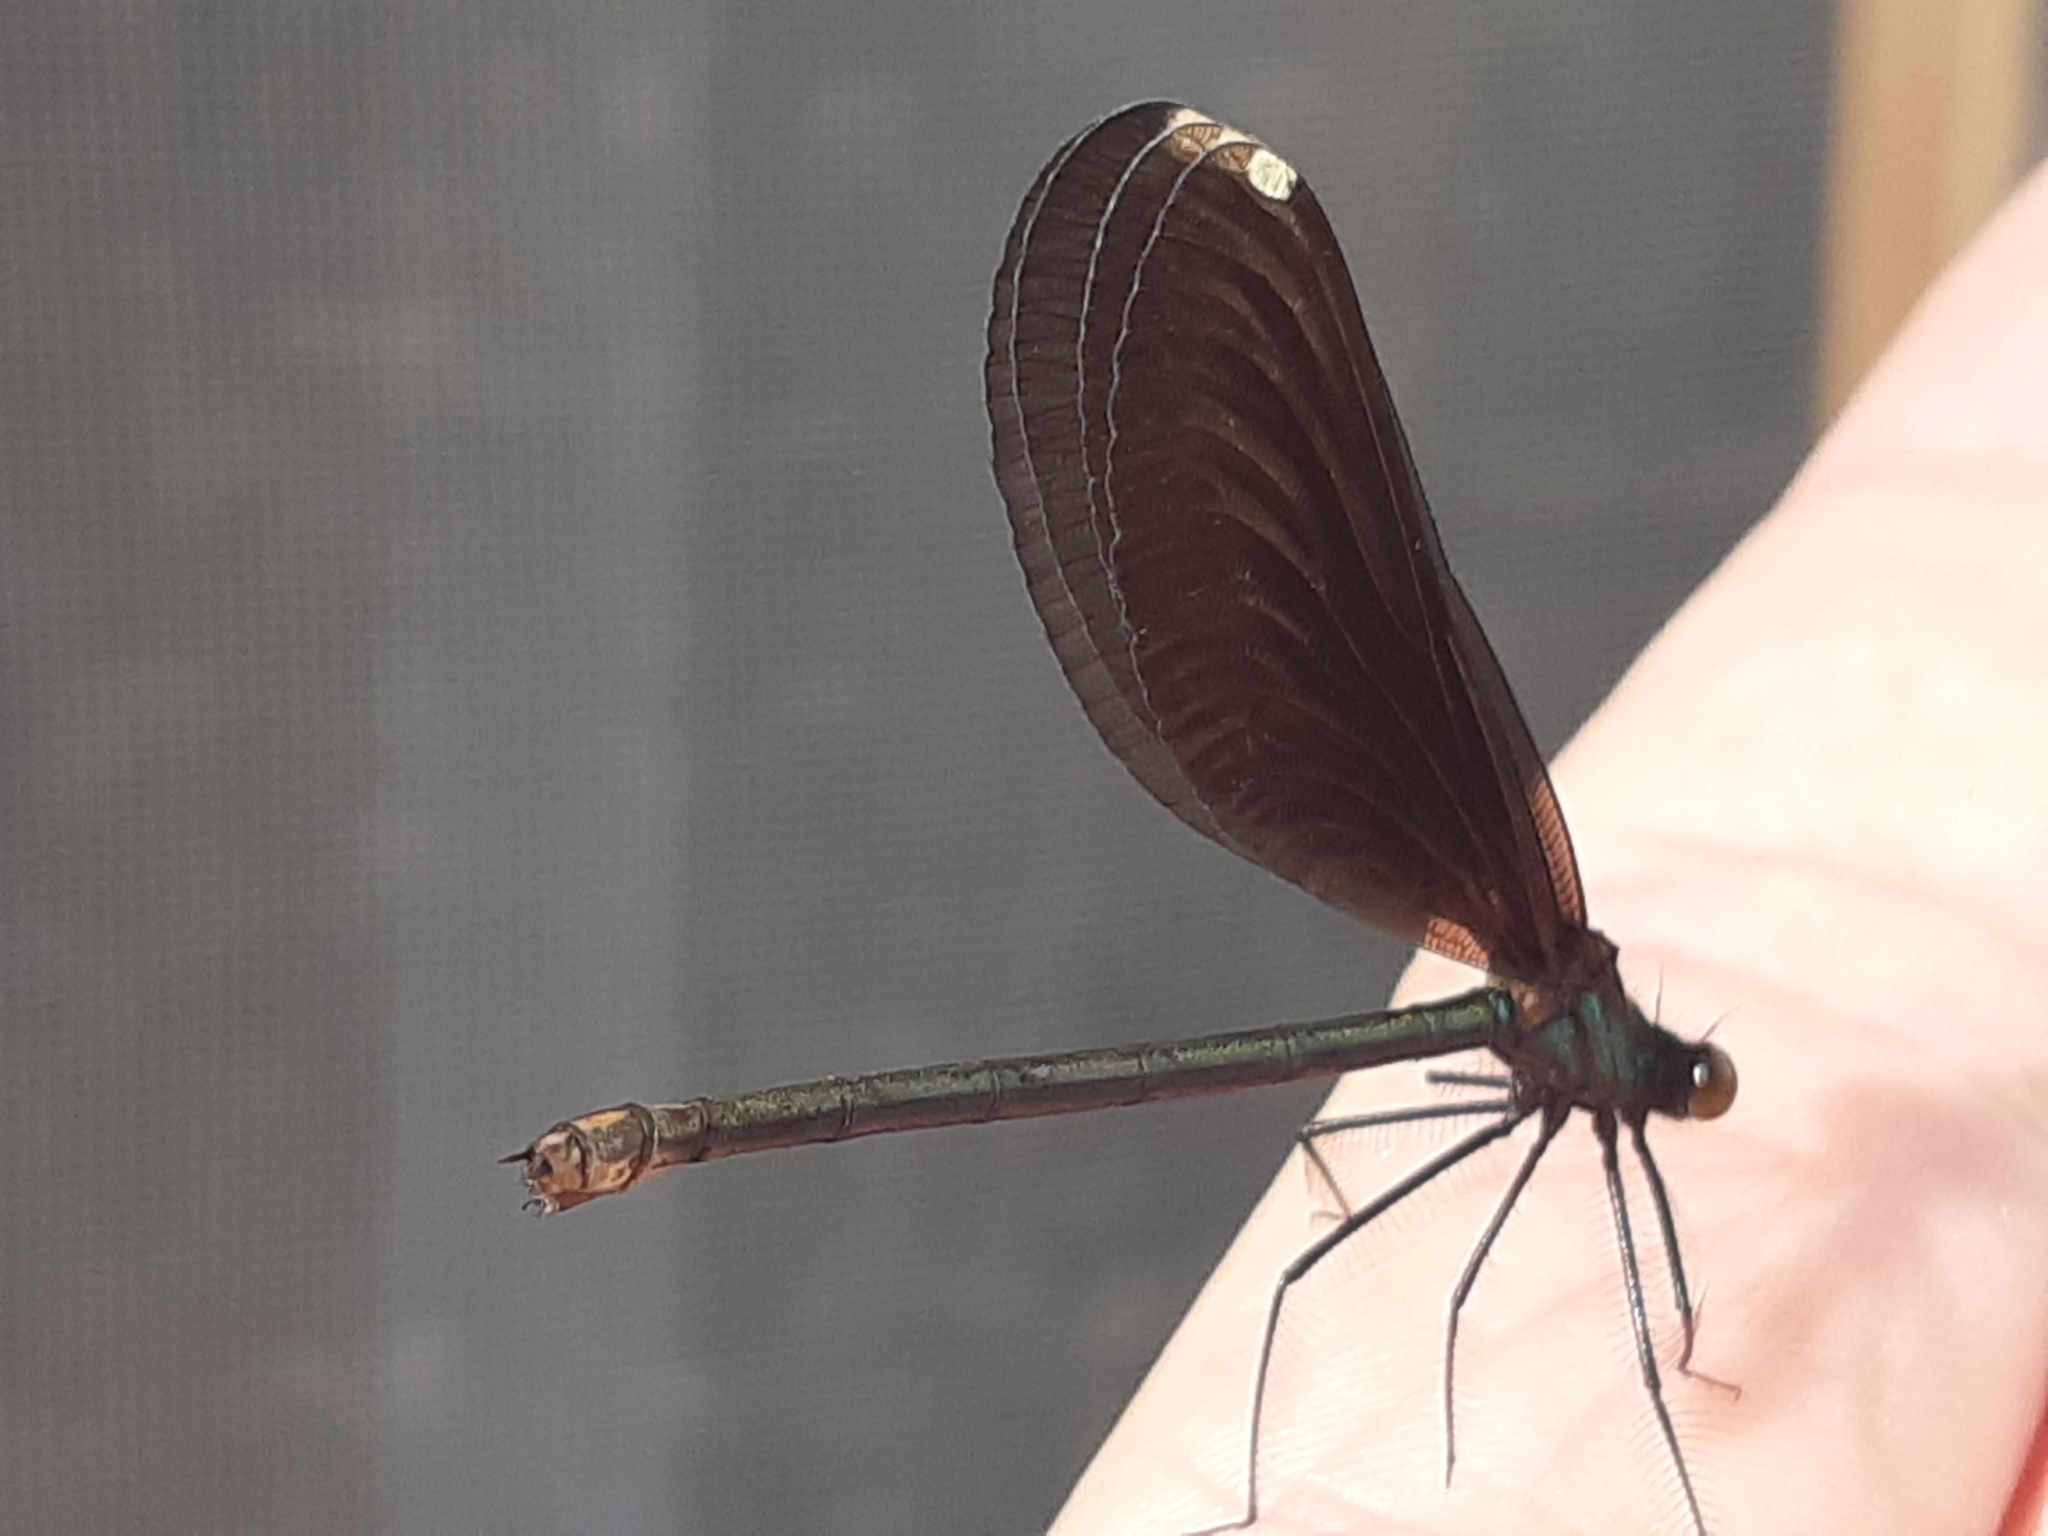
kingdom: Animalia
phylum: Arthropoda
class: Insecta
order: Odonata
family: Calopterygidae
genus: Calopteryx
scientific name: Calopteryx maculata
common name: Ebony jewelwing
